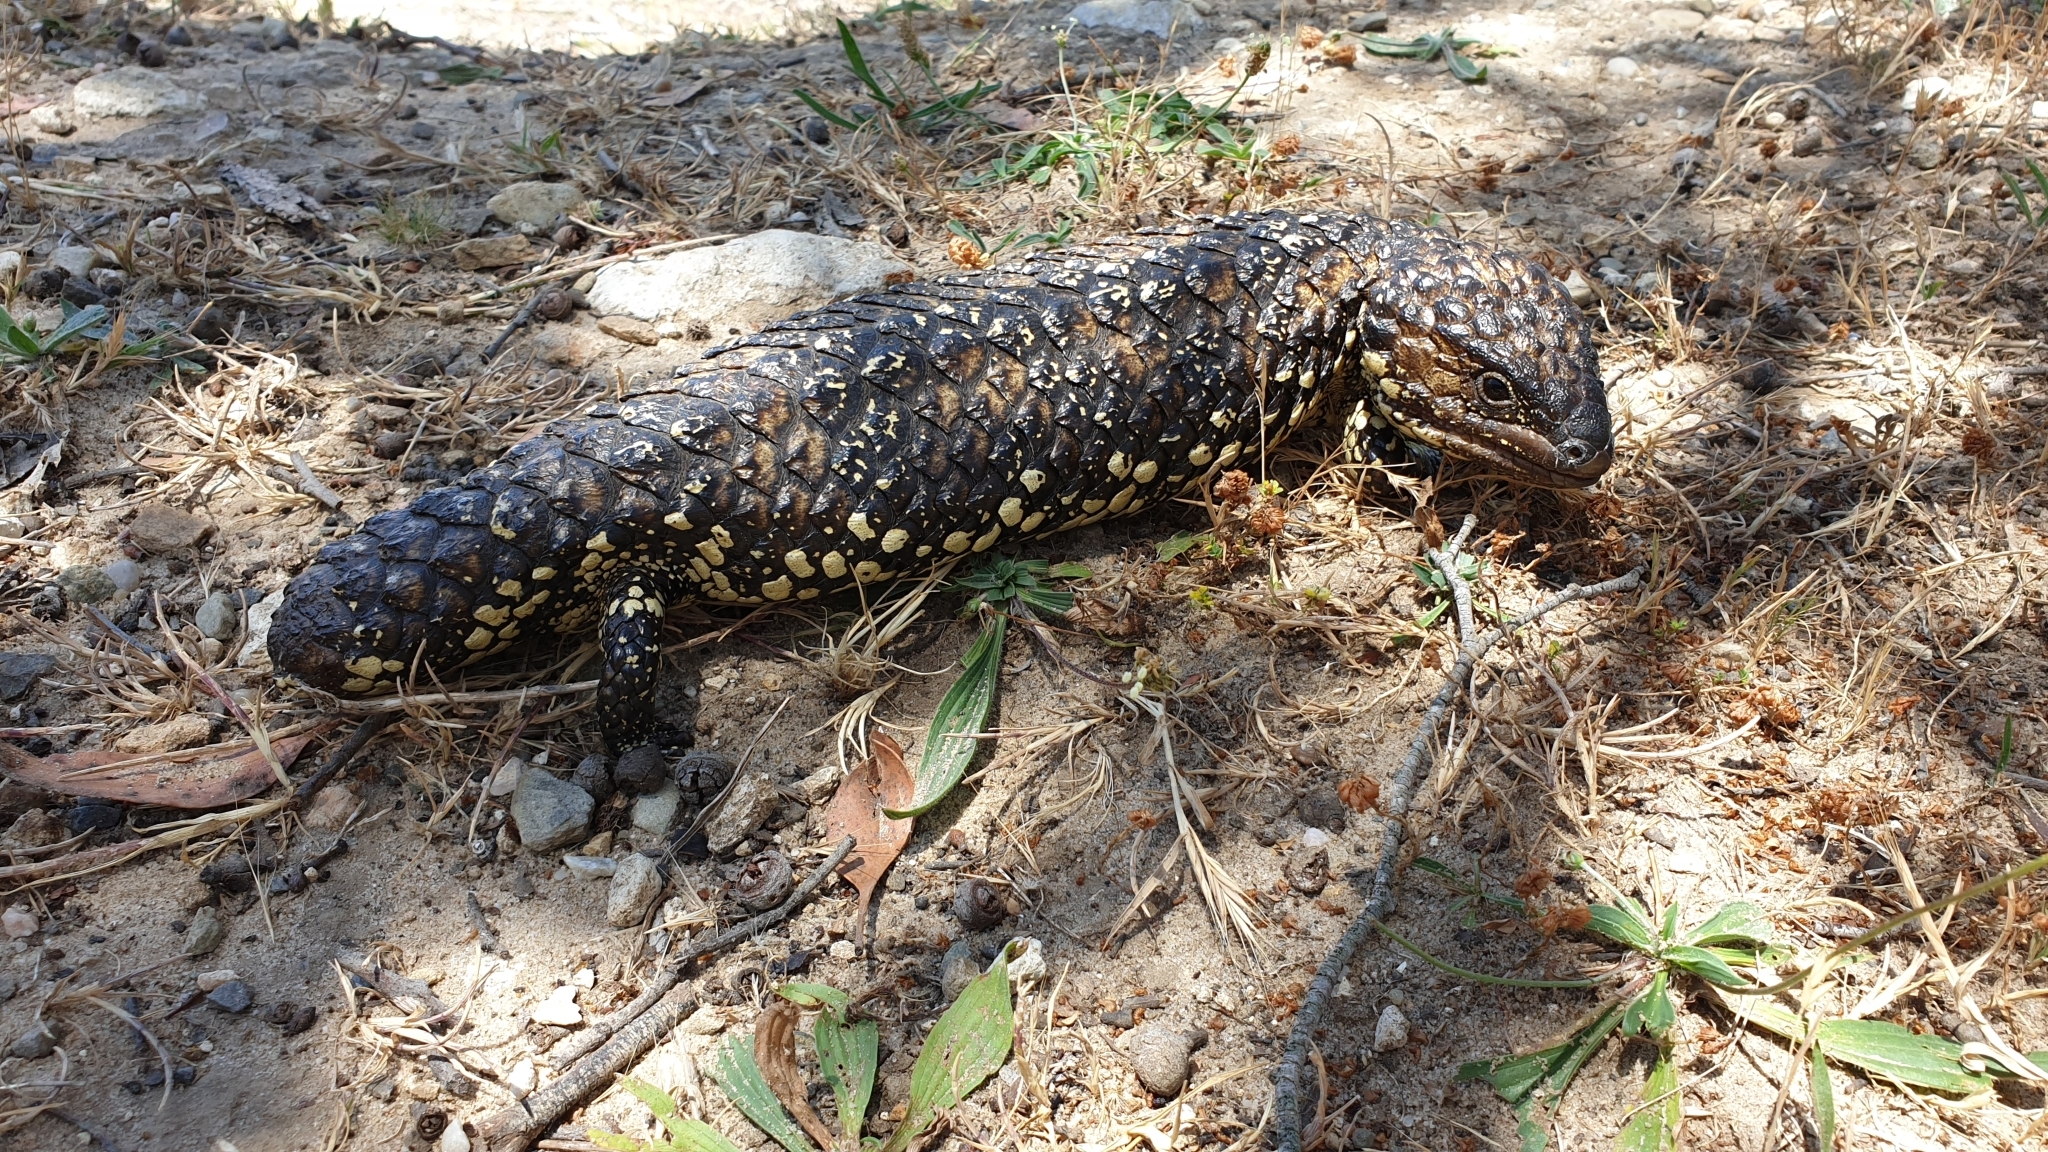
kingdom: Animalia
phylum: Chordata
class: Squamata
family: Scincidae
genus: Tiliqua
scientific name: Tiliqua rugosa
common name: Pinecone lizard
